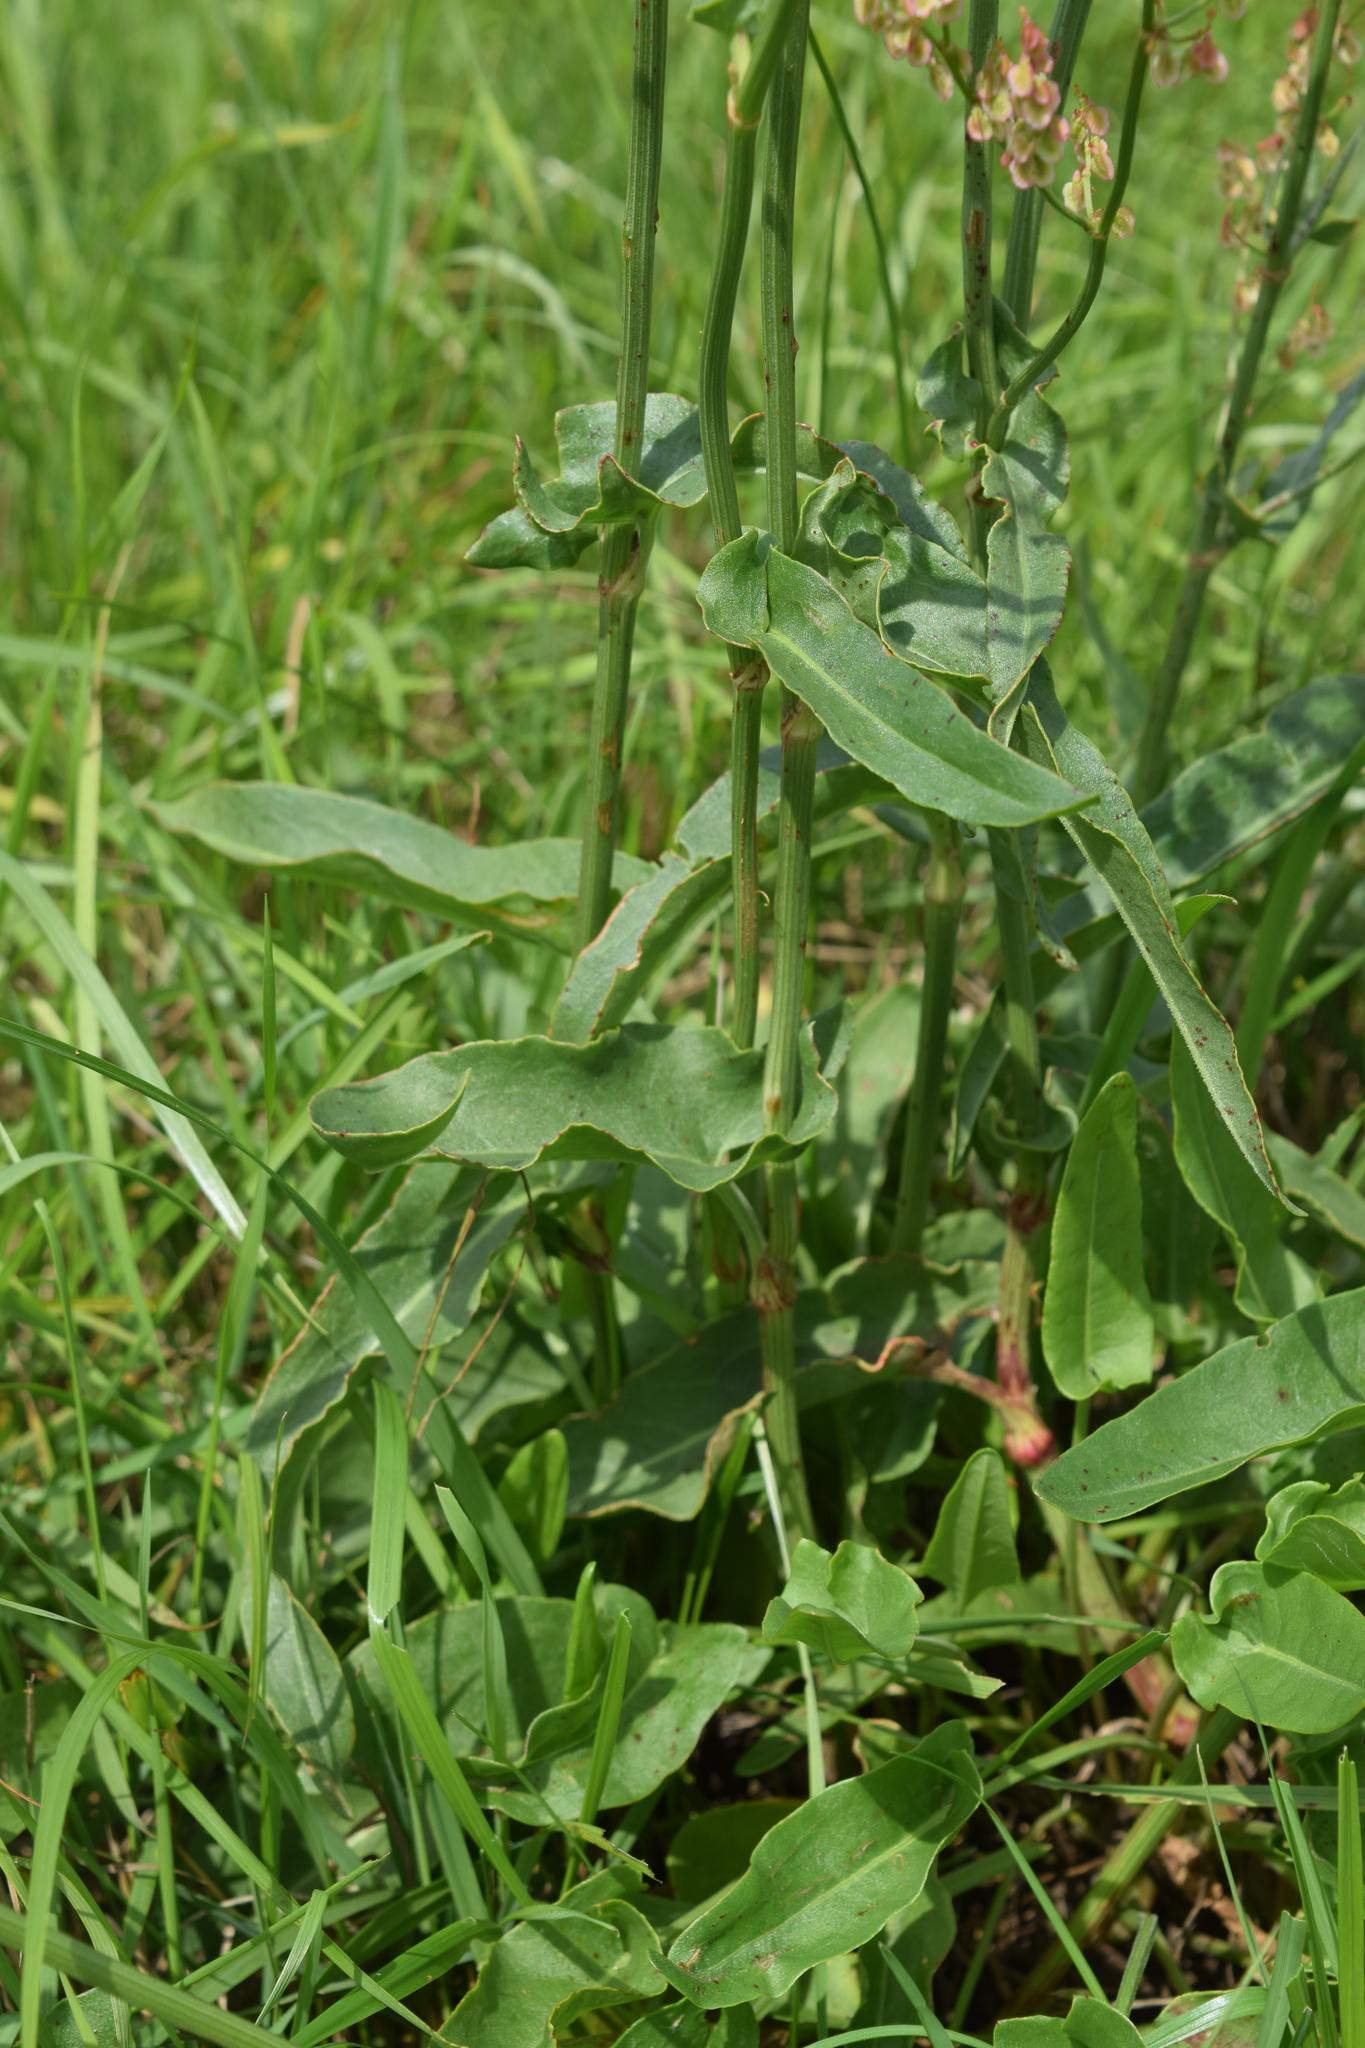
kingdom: Plantae
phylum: Tracheophyta
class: Magnoliopsida
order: Caryophyllales
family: Polygonaceae
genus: Rumex
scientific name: Rumex thyrsiflorus
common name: Garden sorrel
